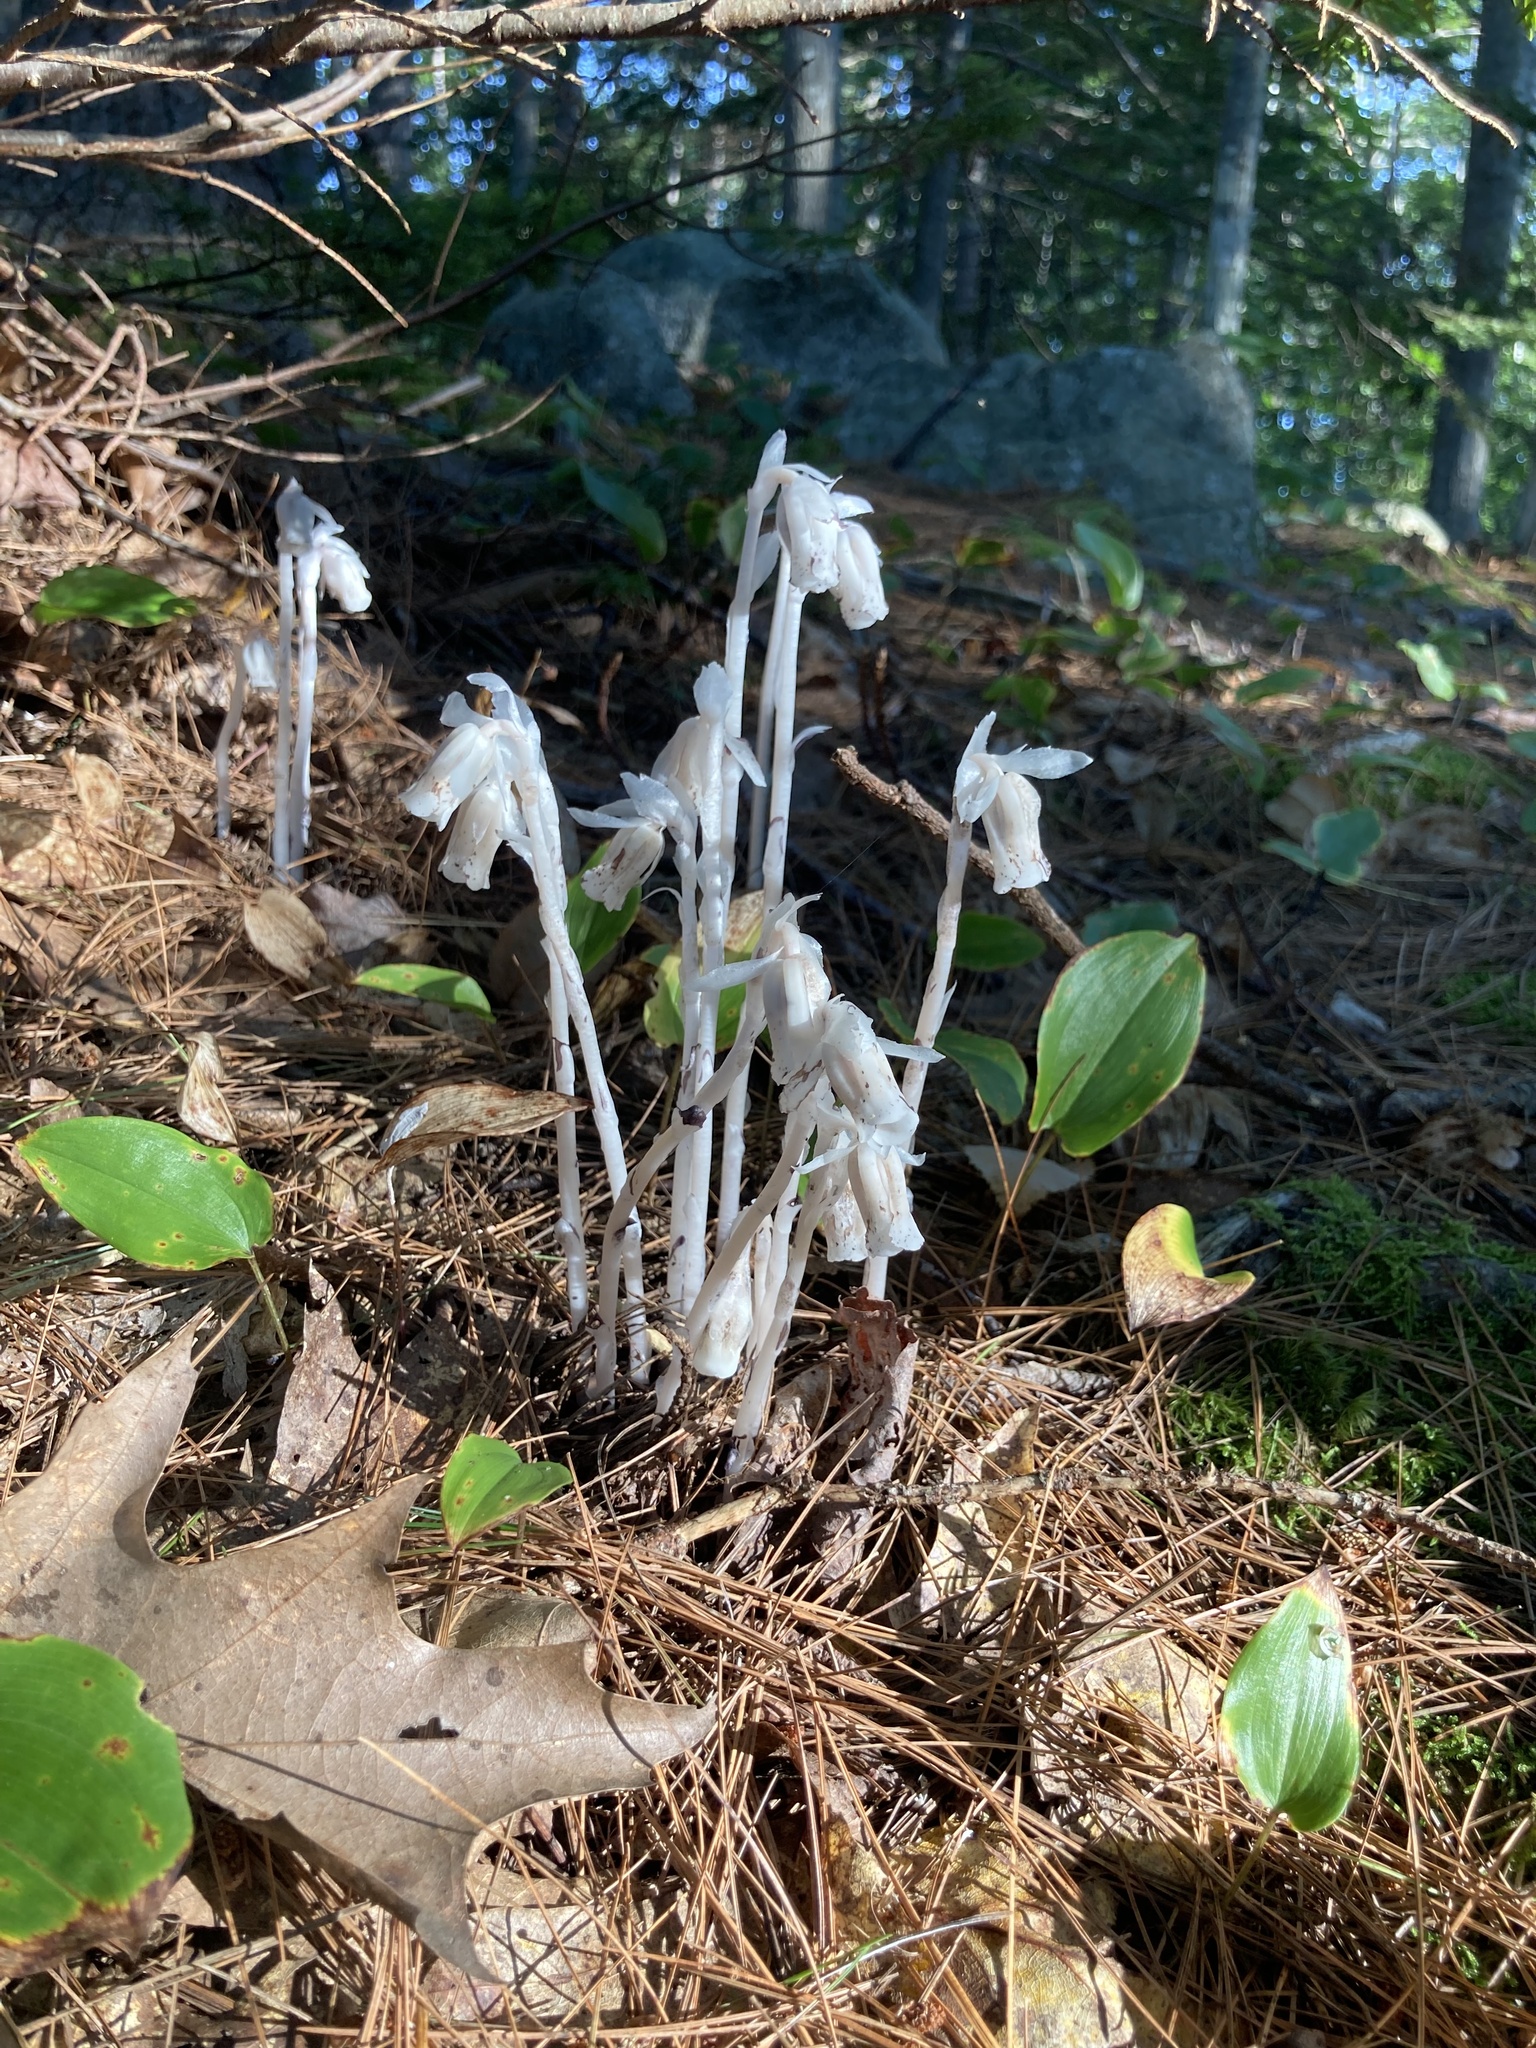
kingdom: Plantae
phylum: Tracheophyta
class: Magnoliopsida
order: Ericales
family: Ericaceae
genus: Monotropa
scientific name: Monotropa uniflora
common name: Convulsion root
